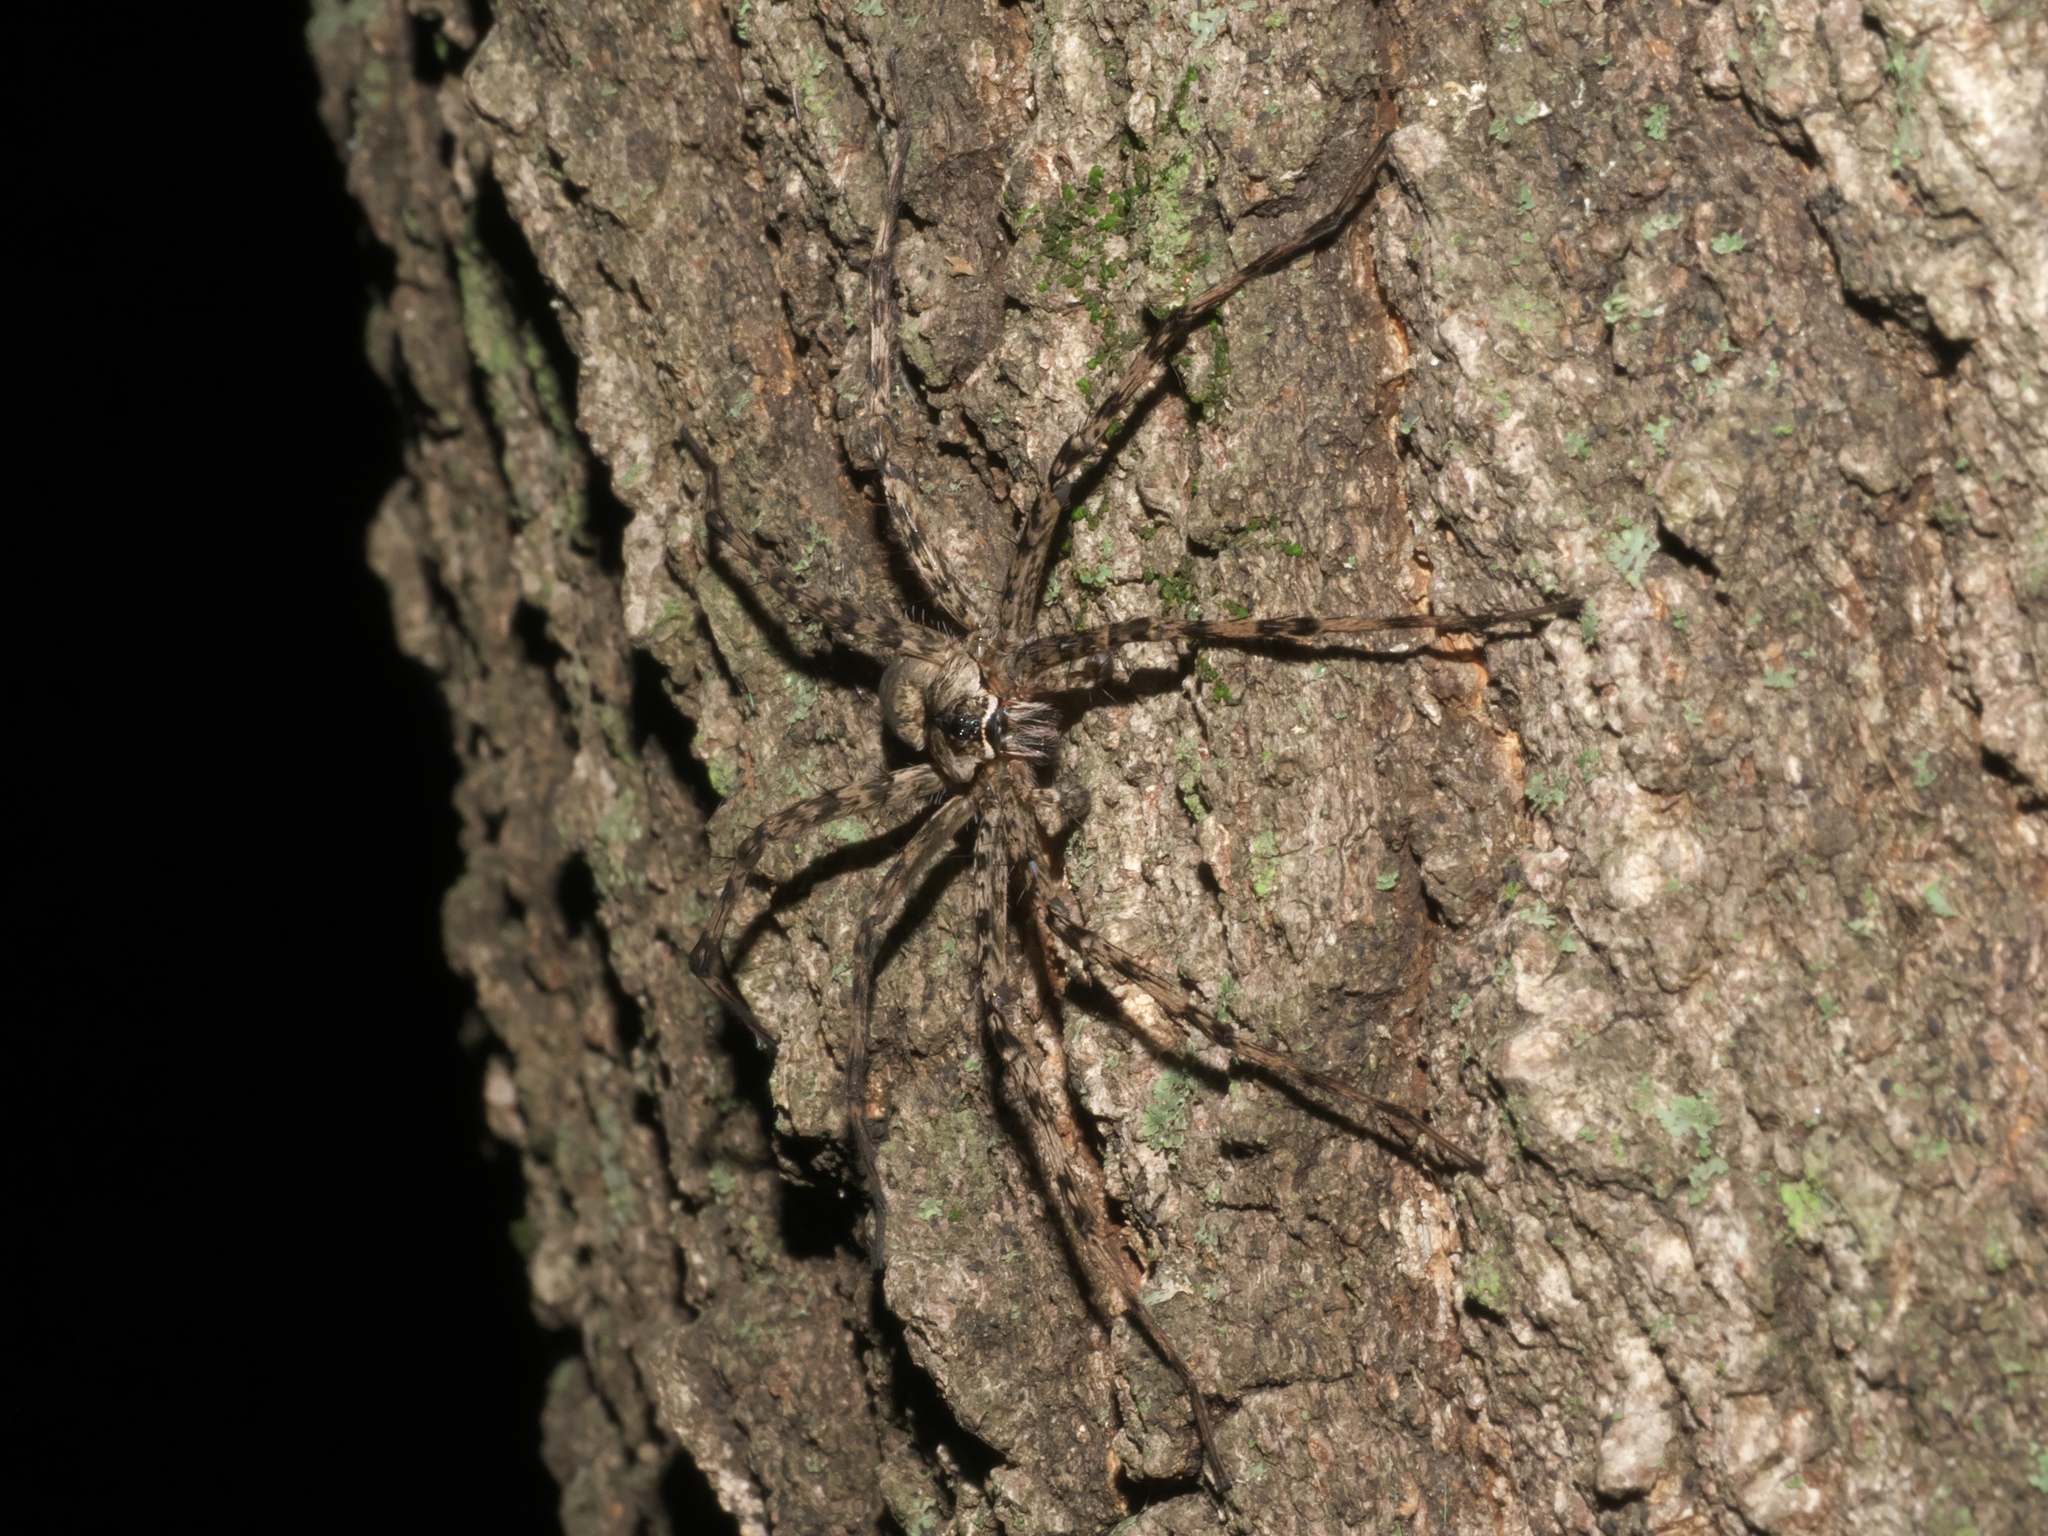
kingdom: Animalia
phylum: Arthropoda
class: Arachnida
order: Araneae
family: Pisauridae
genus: Dolomedes
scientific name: Dolomedes albineus
